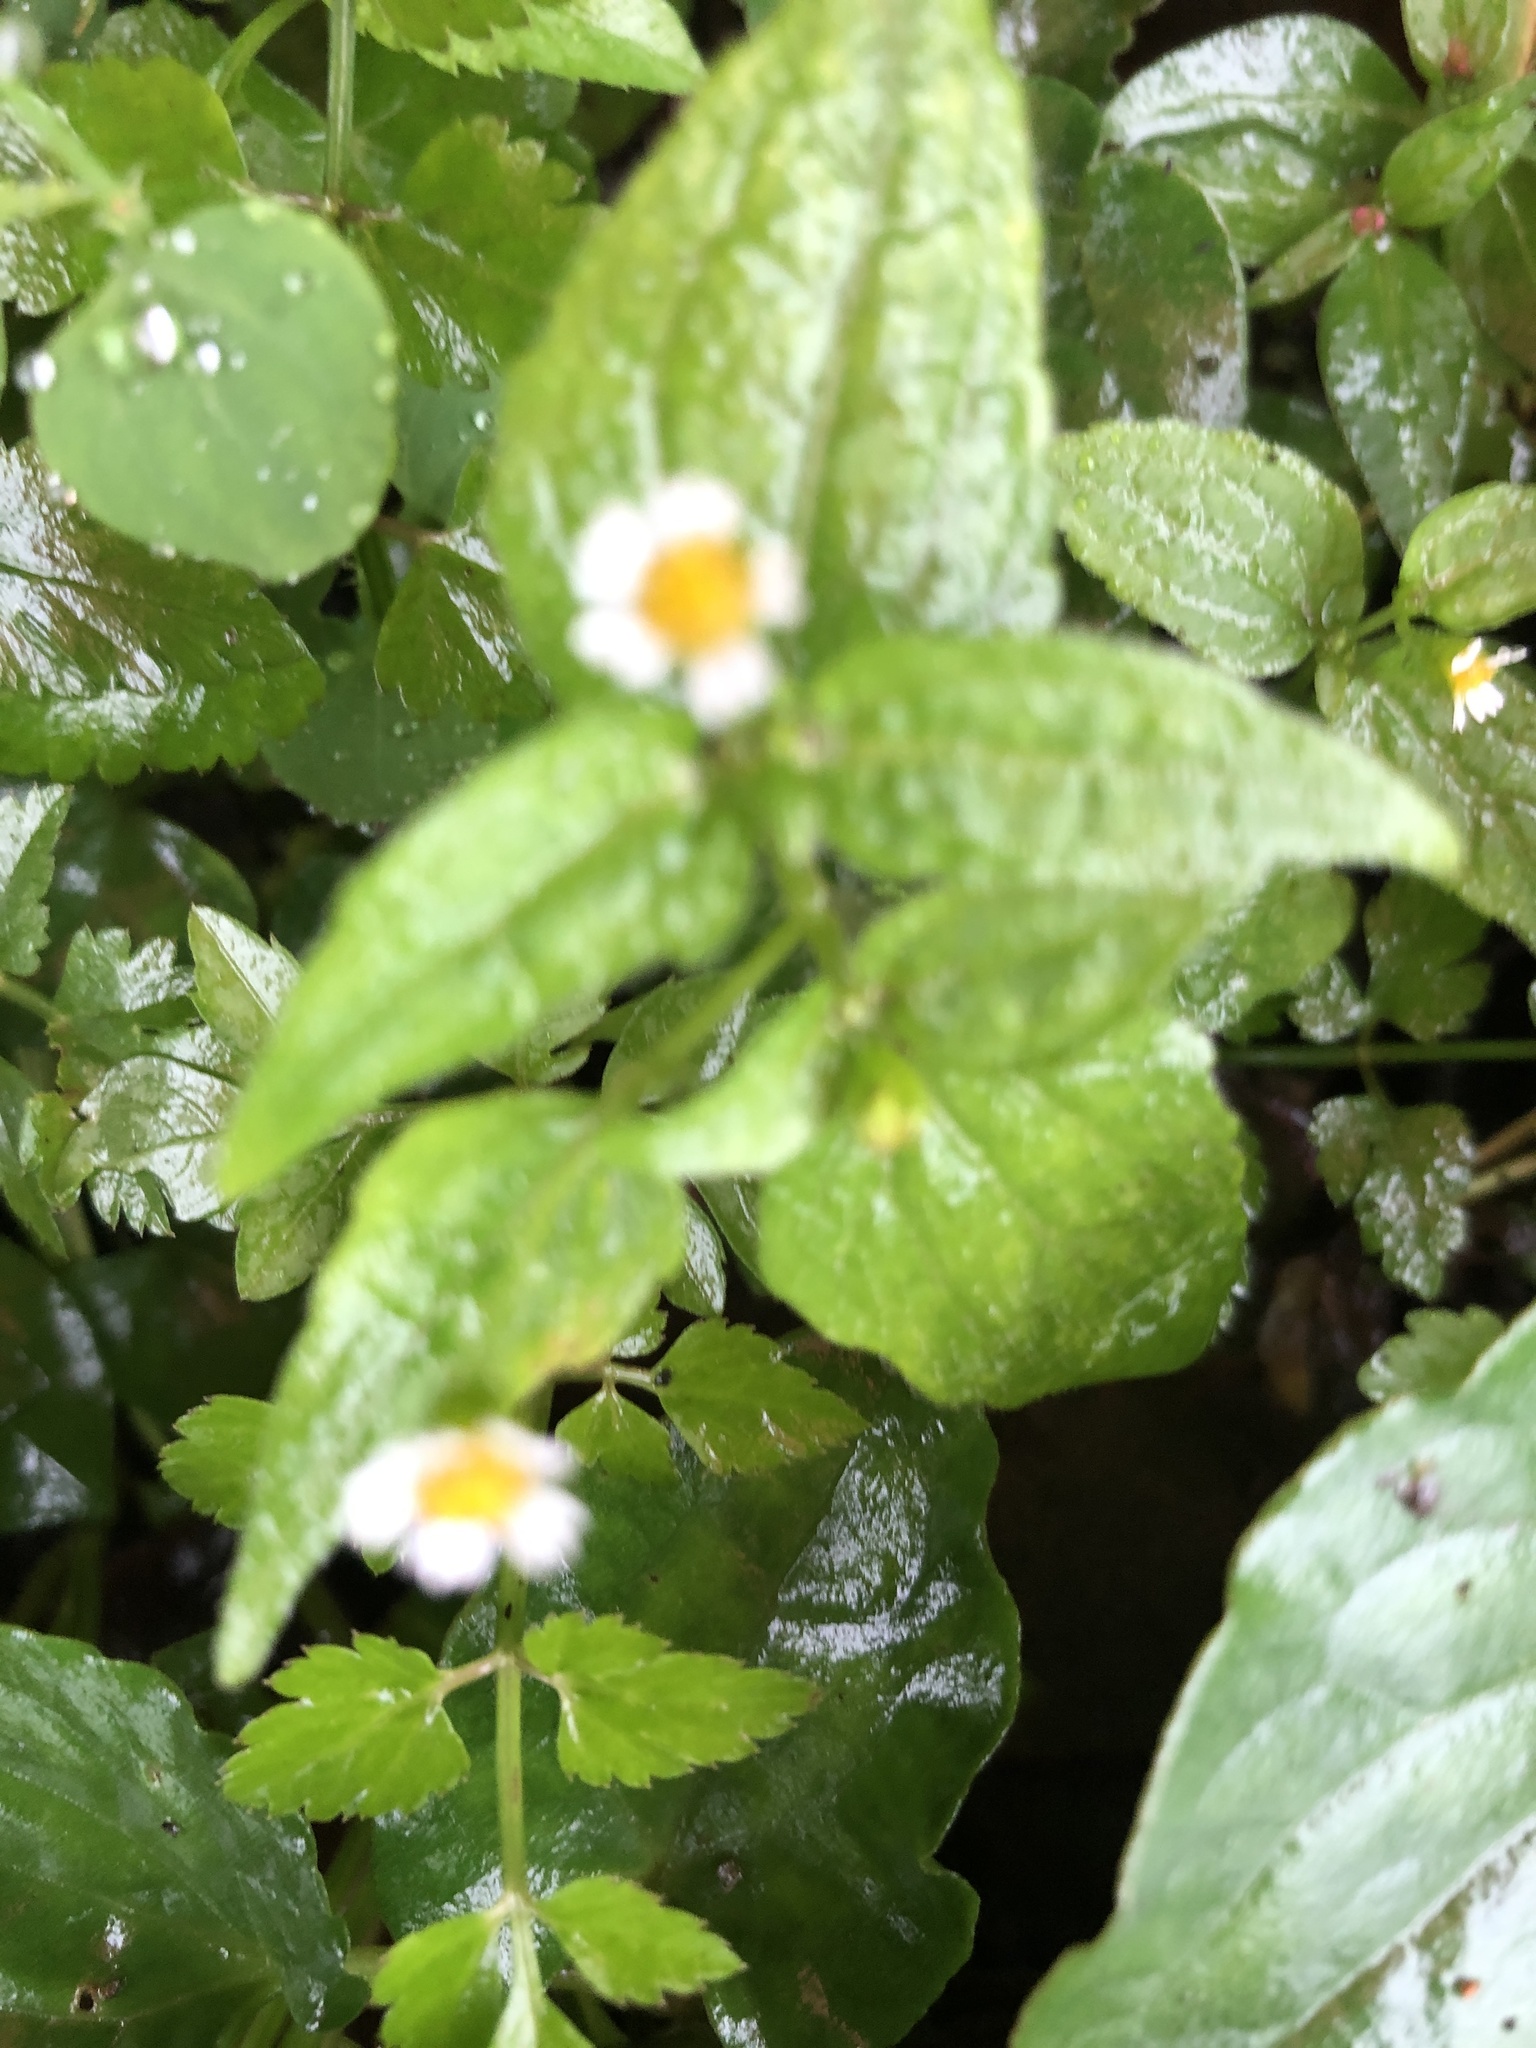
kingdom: Plantae
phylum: Tracheophyta
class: Magnoliopsida
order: Asterales
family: Asteraceae
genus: Galinsoga
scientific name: Galinsoga quadriradiata
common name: Shaggy soldier
